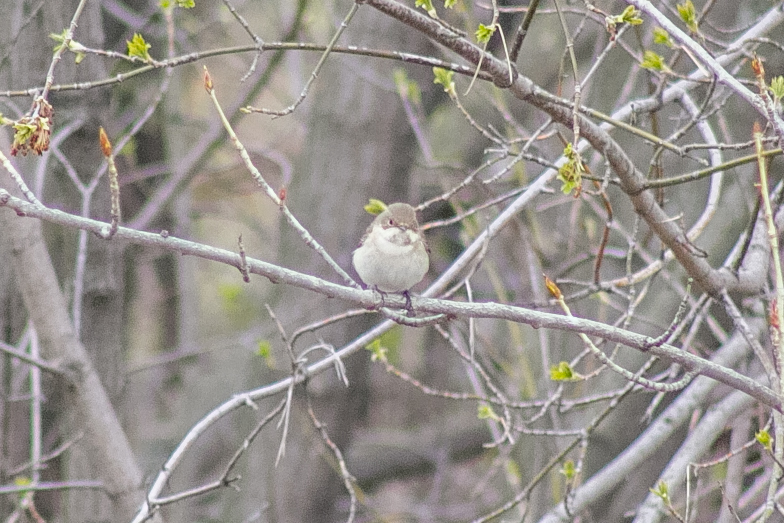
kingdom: Animalia
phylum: Chordata
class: Aves
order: Passeriformes
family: Muscicapidae
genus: Ficedula
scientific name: Ficedula hypoleuca
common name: European pied flycatcher
